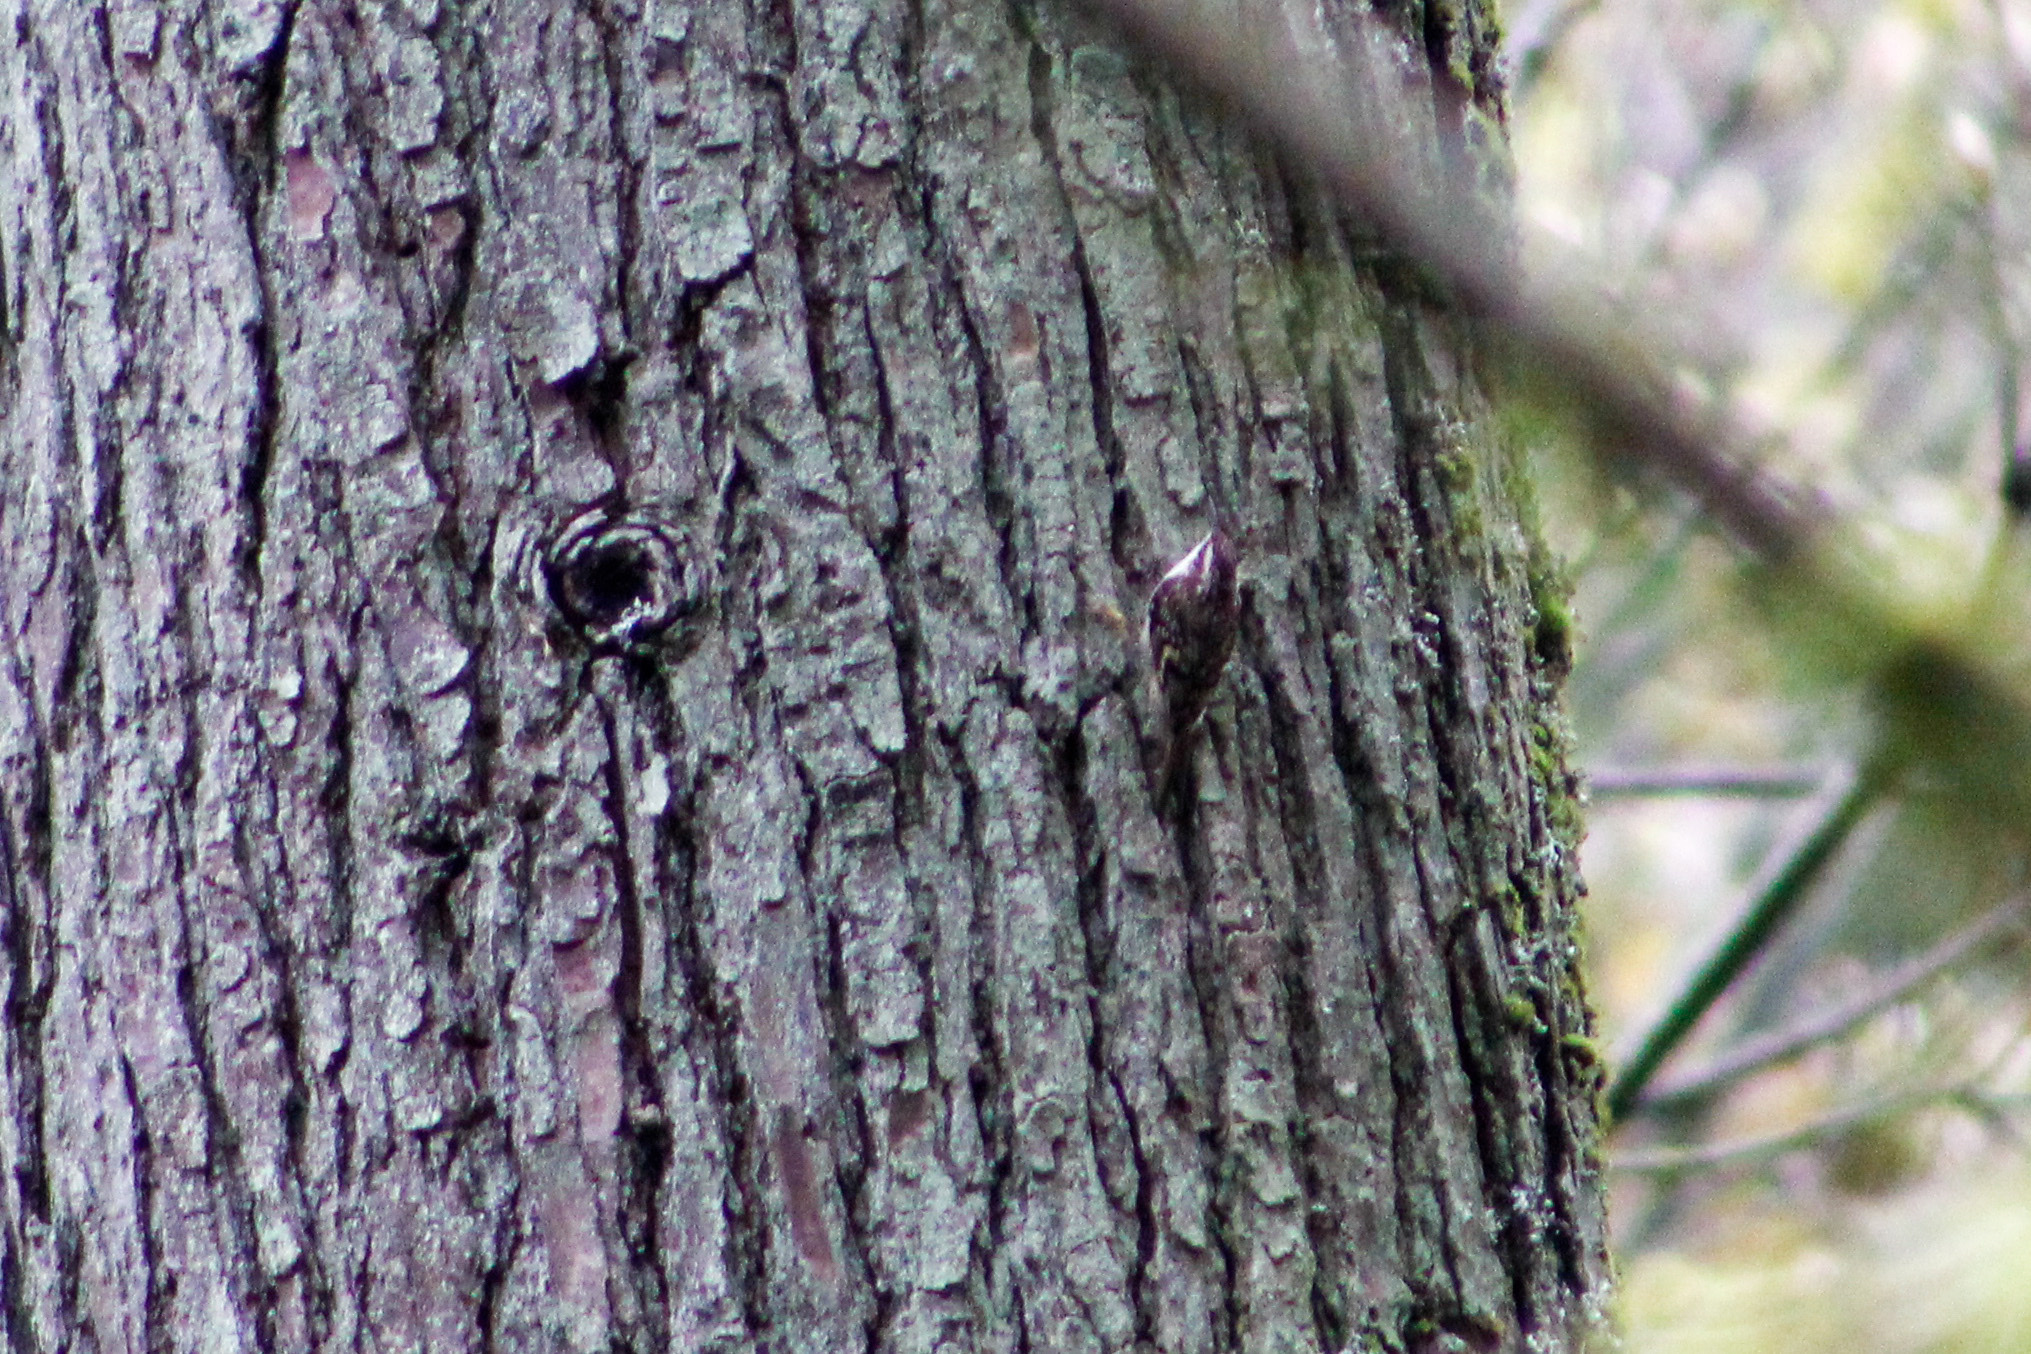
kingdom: Animalia
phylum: Chordata
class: Aves
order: Passeriformes
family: Certhiidae
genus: Certhia
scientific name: Certhia americana
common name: Brown creeper
